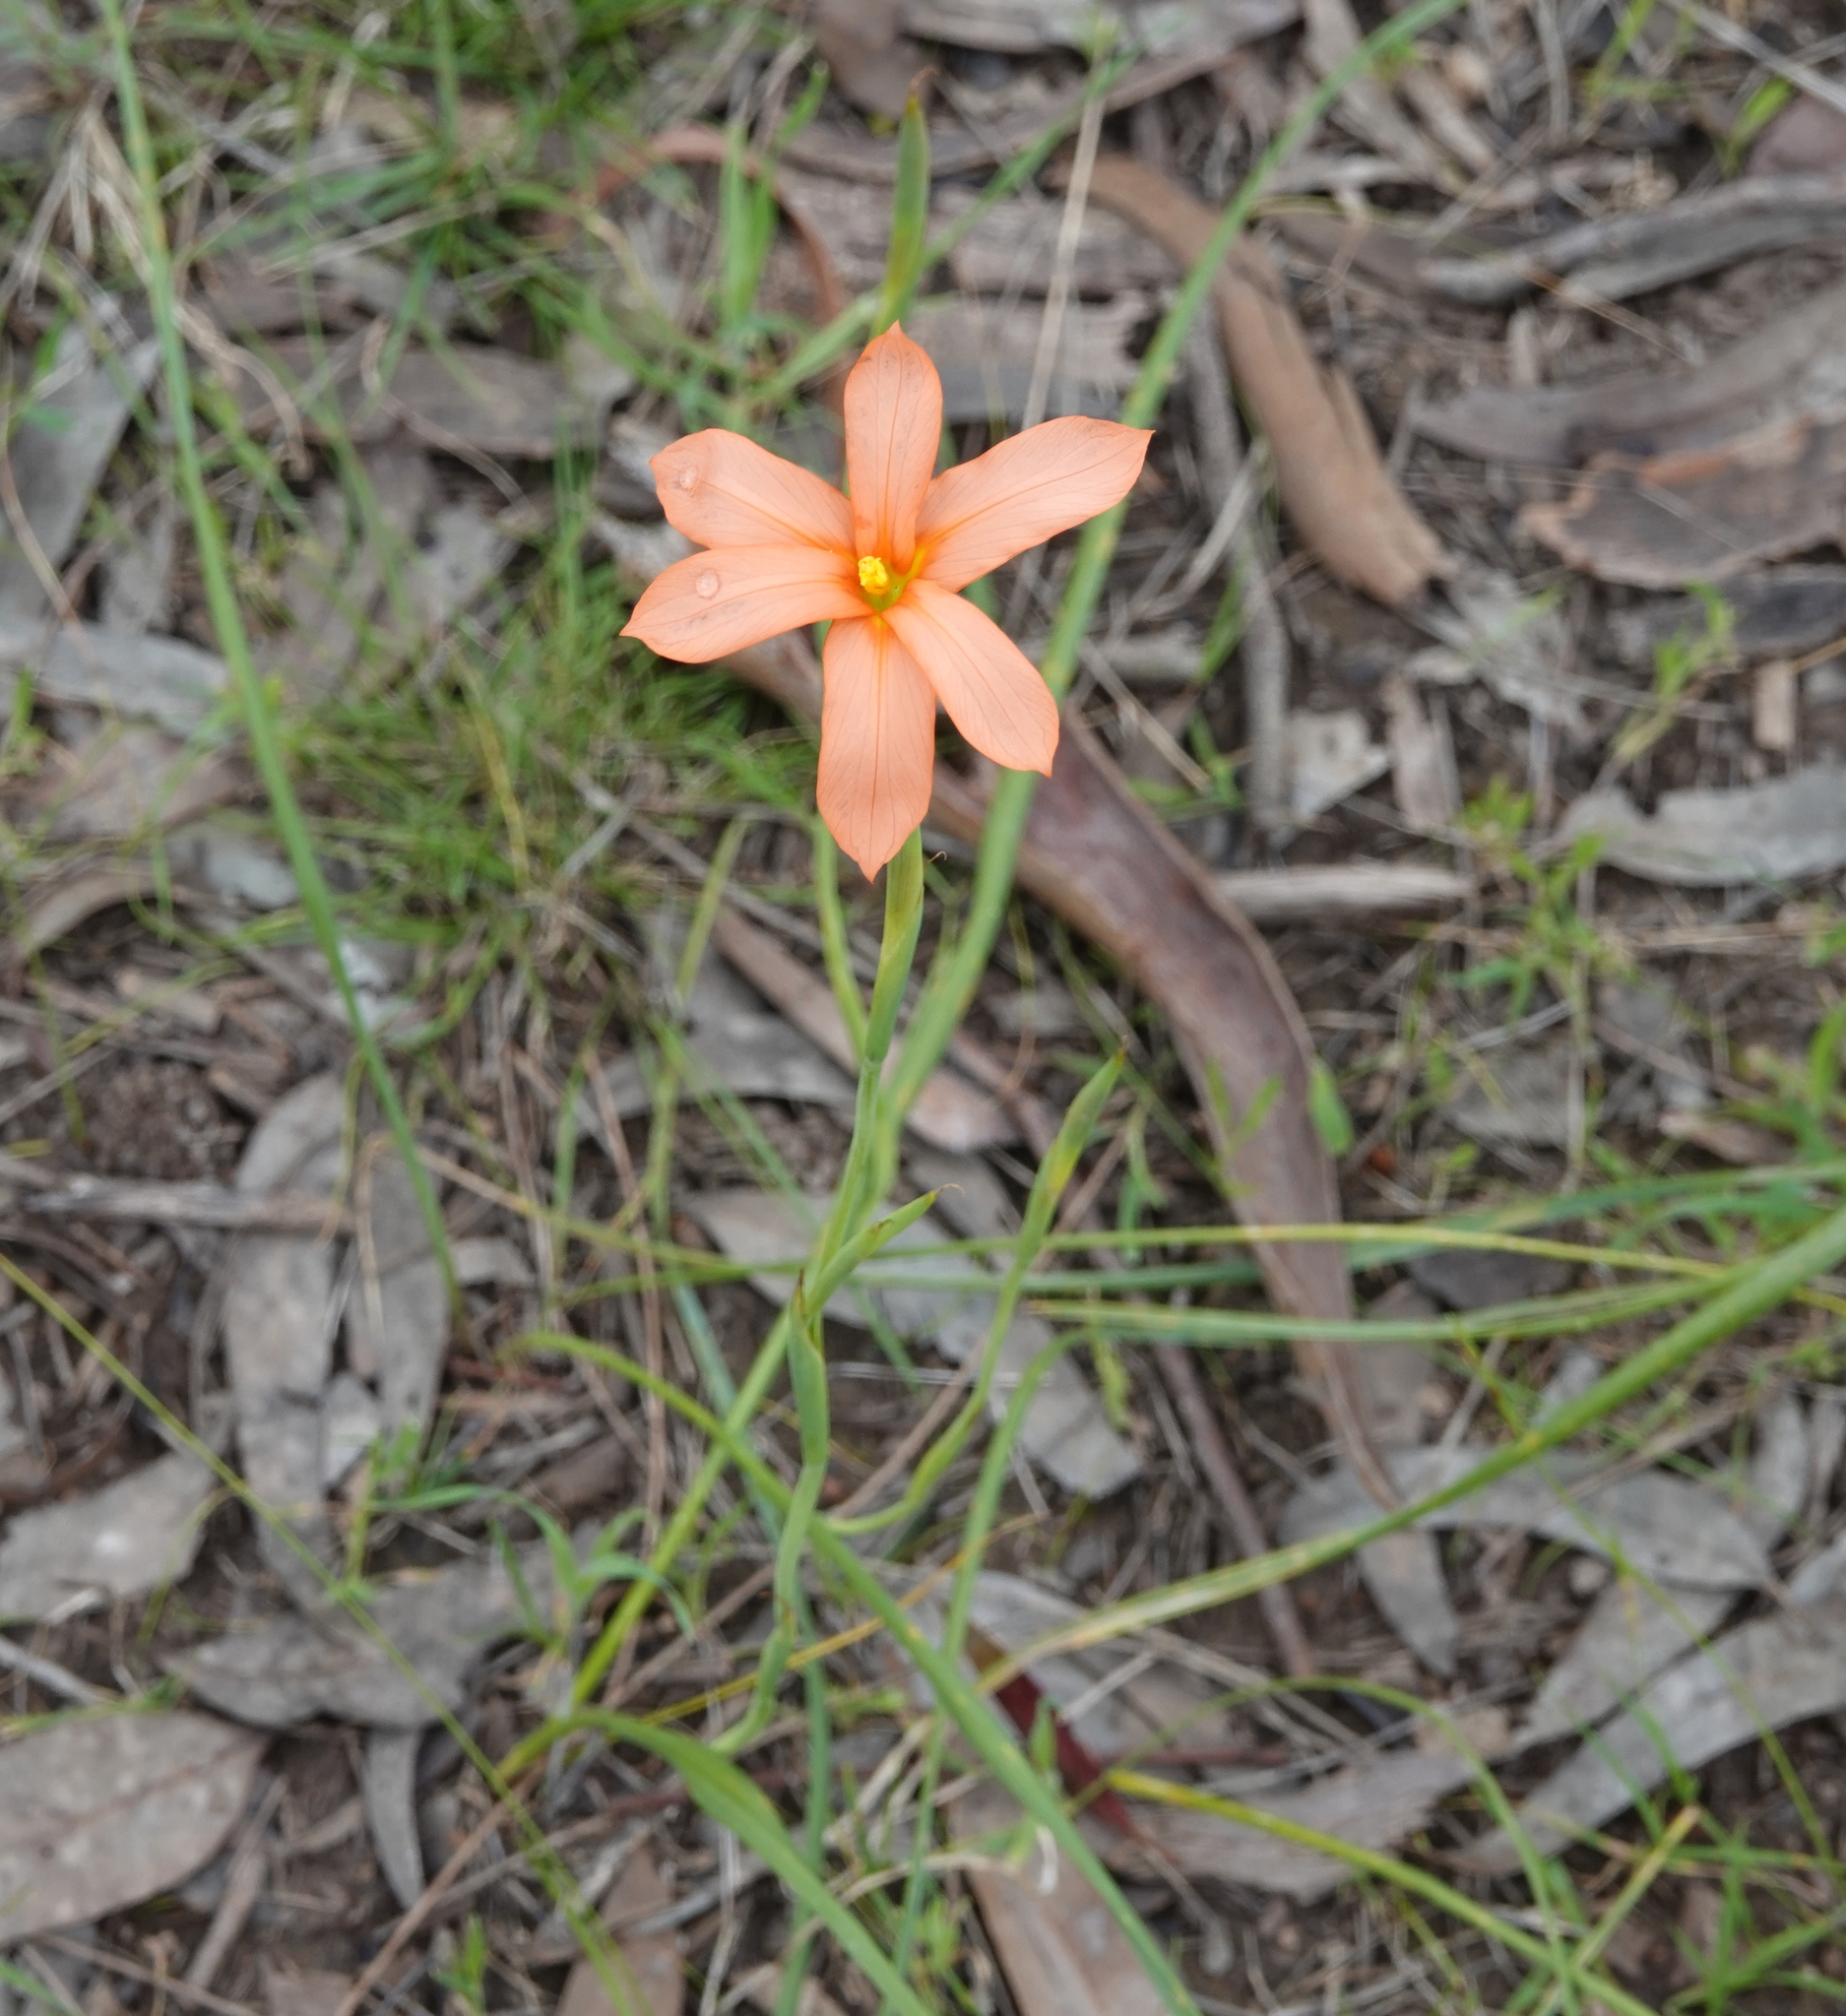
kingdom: Plantae
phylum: Tracheophyta
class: Liliopsida
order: Asparagales
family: Iridaceae
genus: Moraea
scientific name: Moraea flaccida
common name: One-leaf cape-tulip
